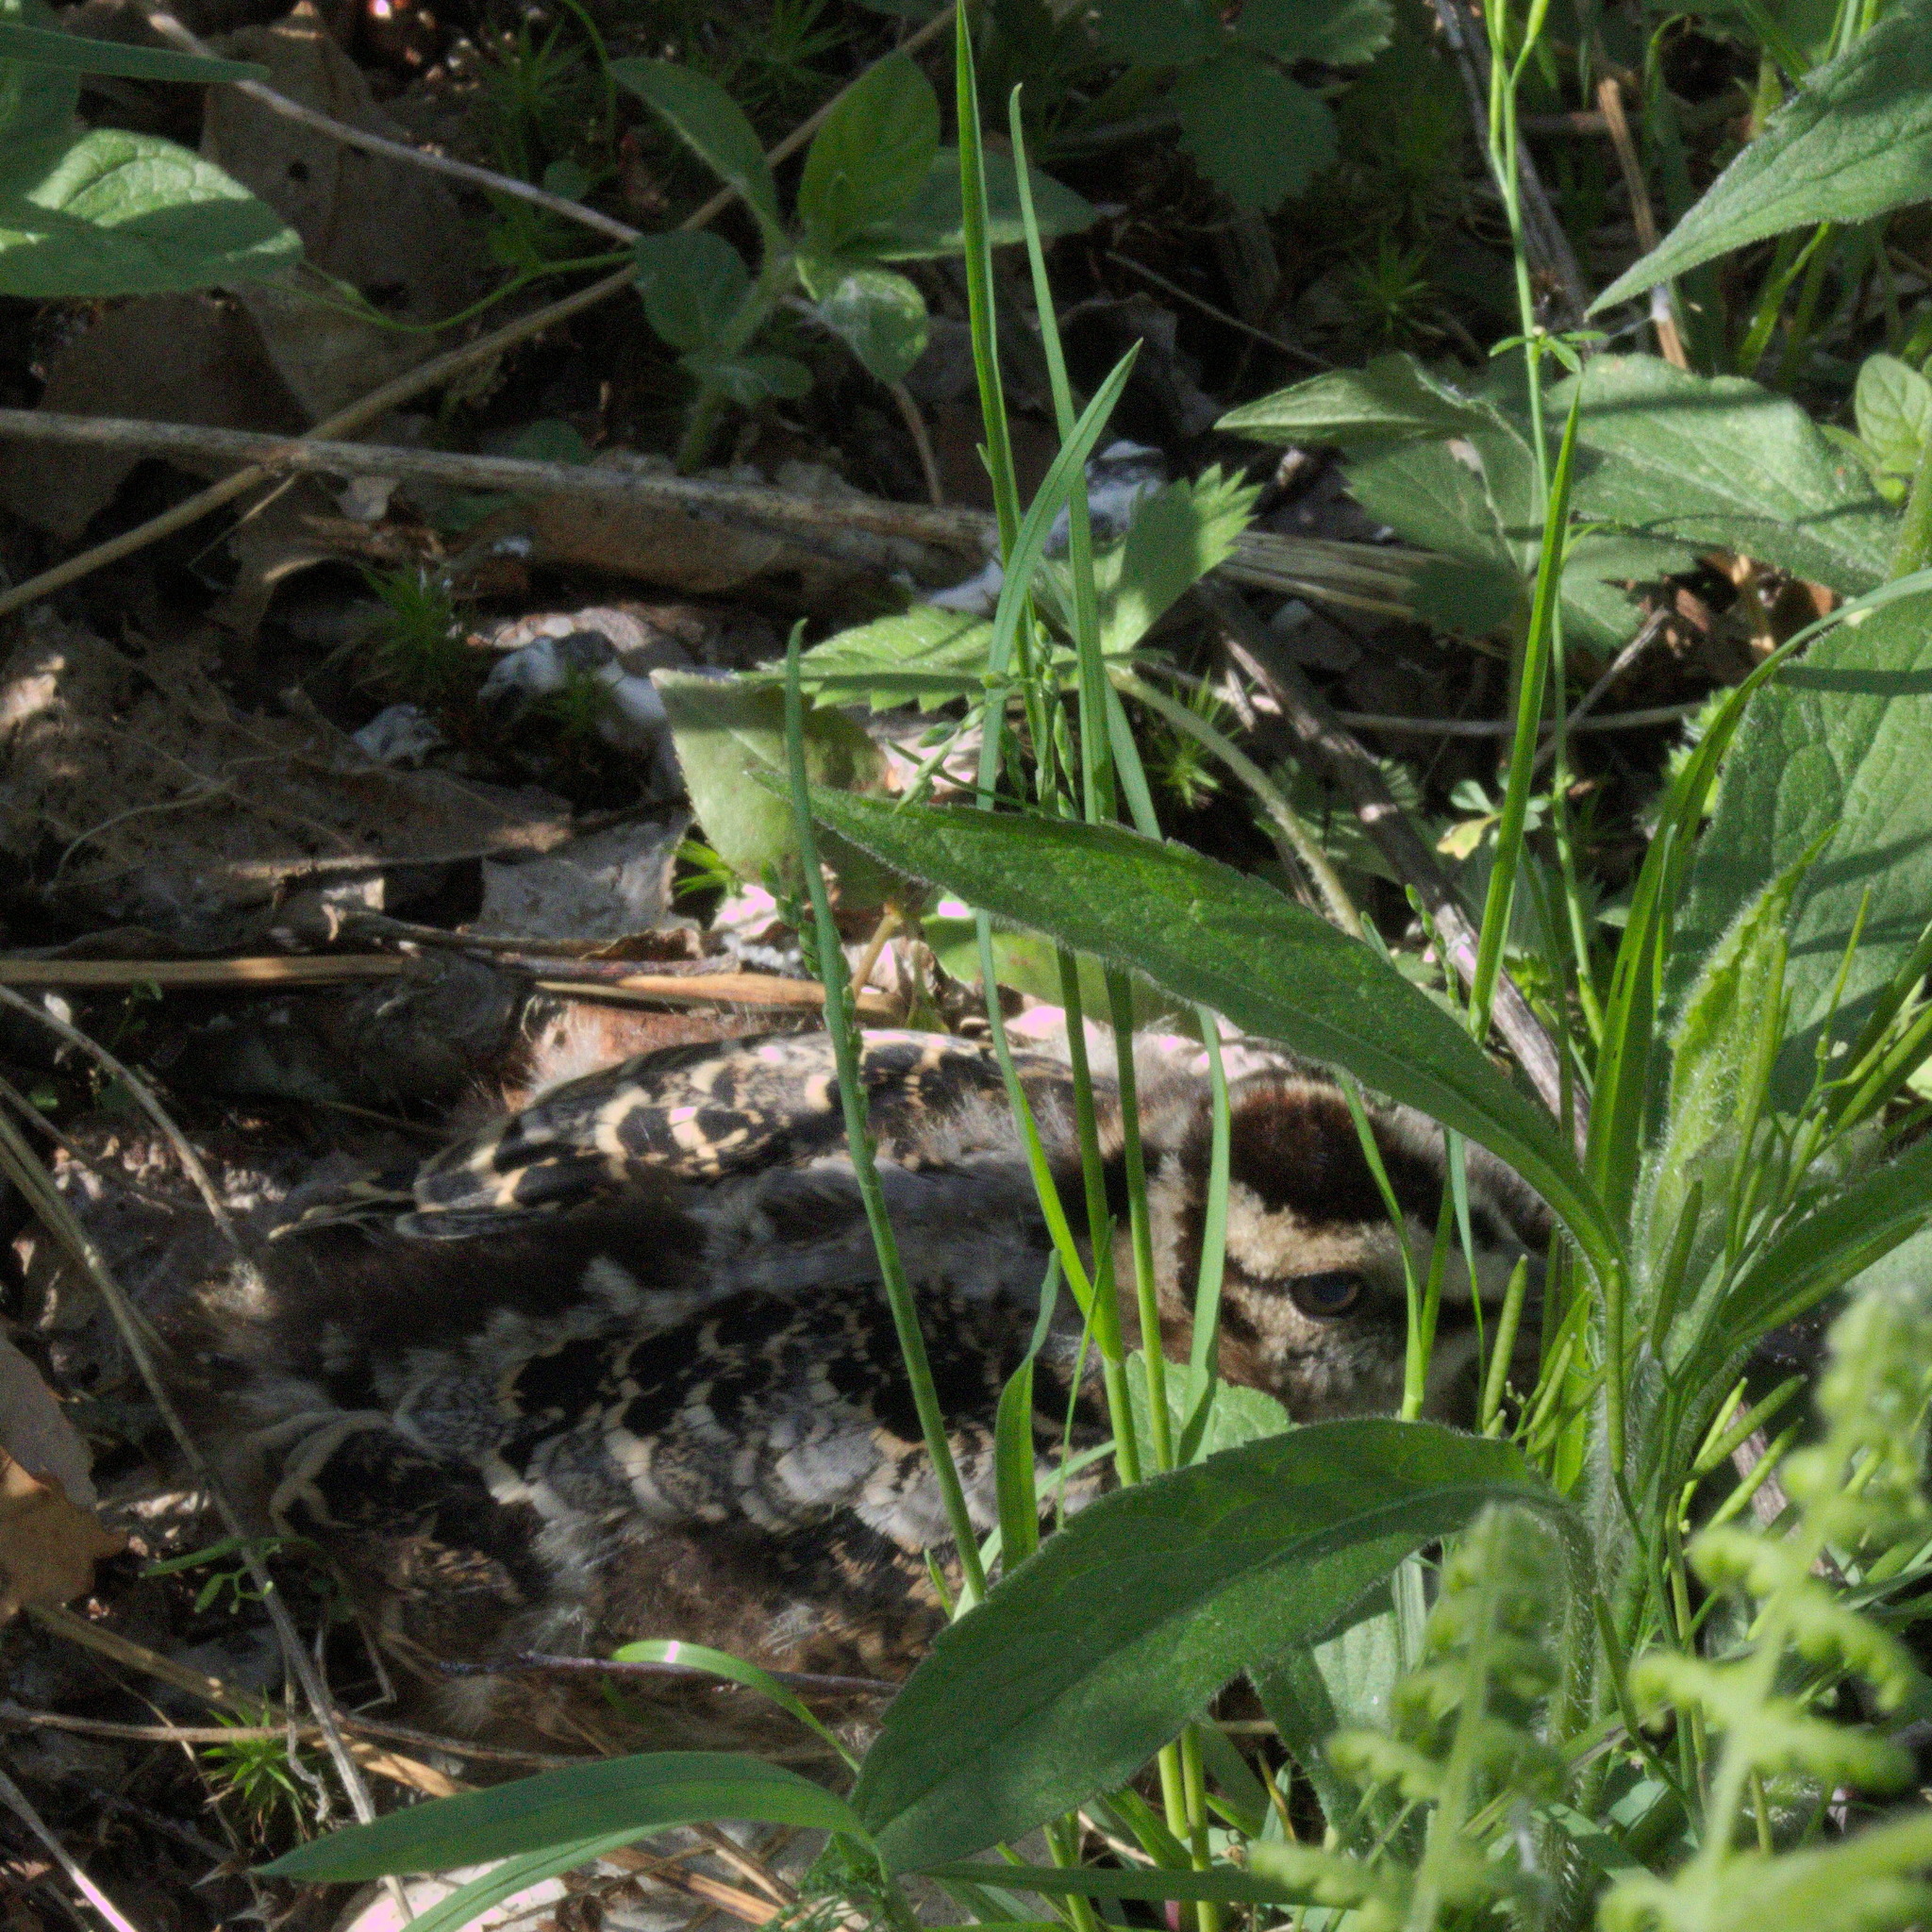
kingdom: Animalia
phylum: Chordata
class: Aves
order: Charadriiformes
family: Scolopacidae
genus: Scolopax
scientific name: Scolopax minor
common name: American woodcock
